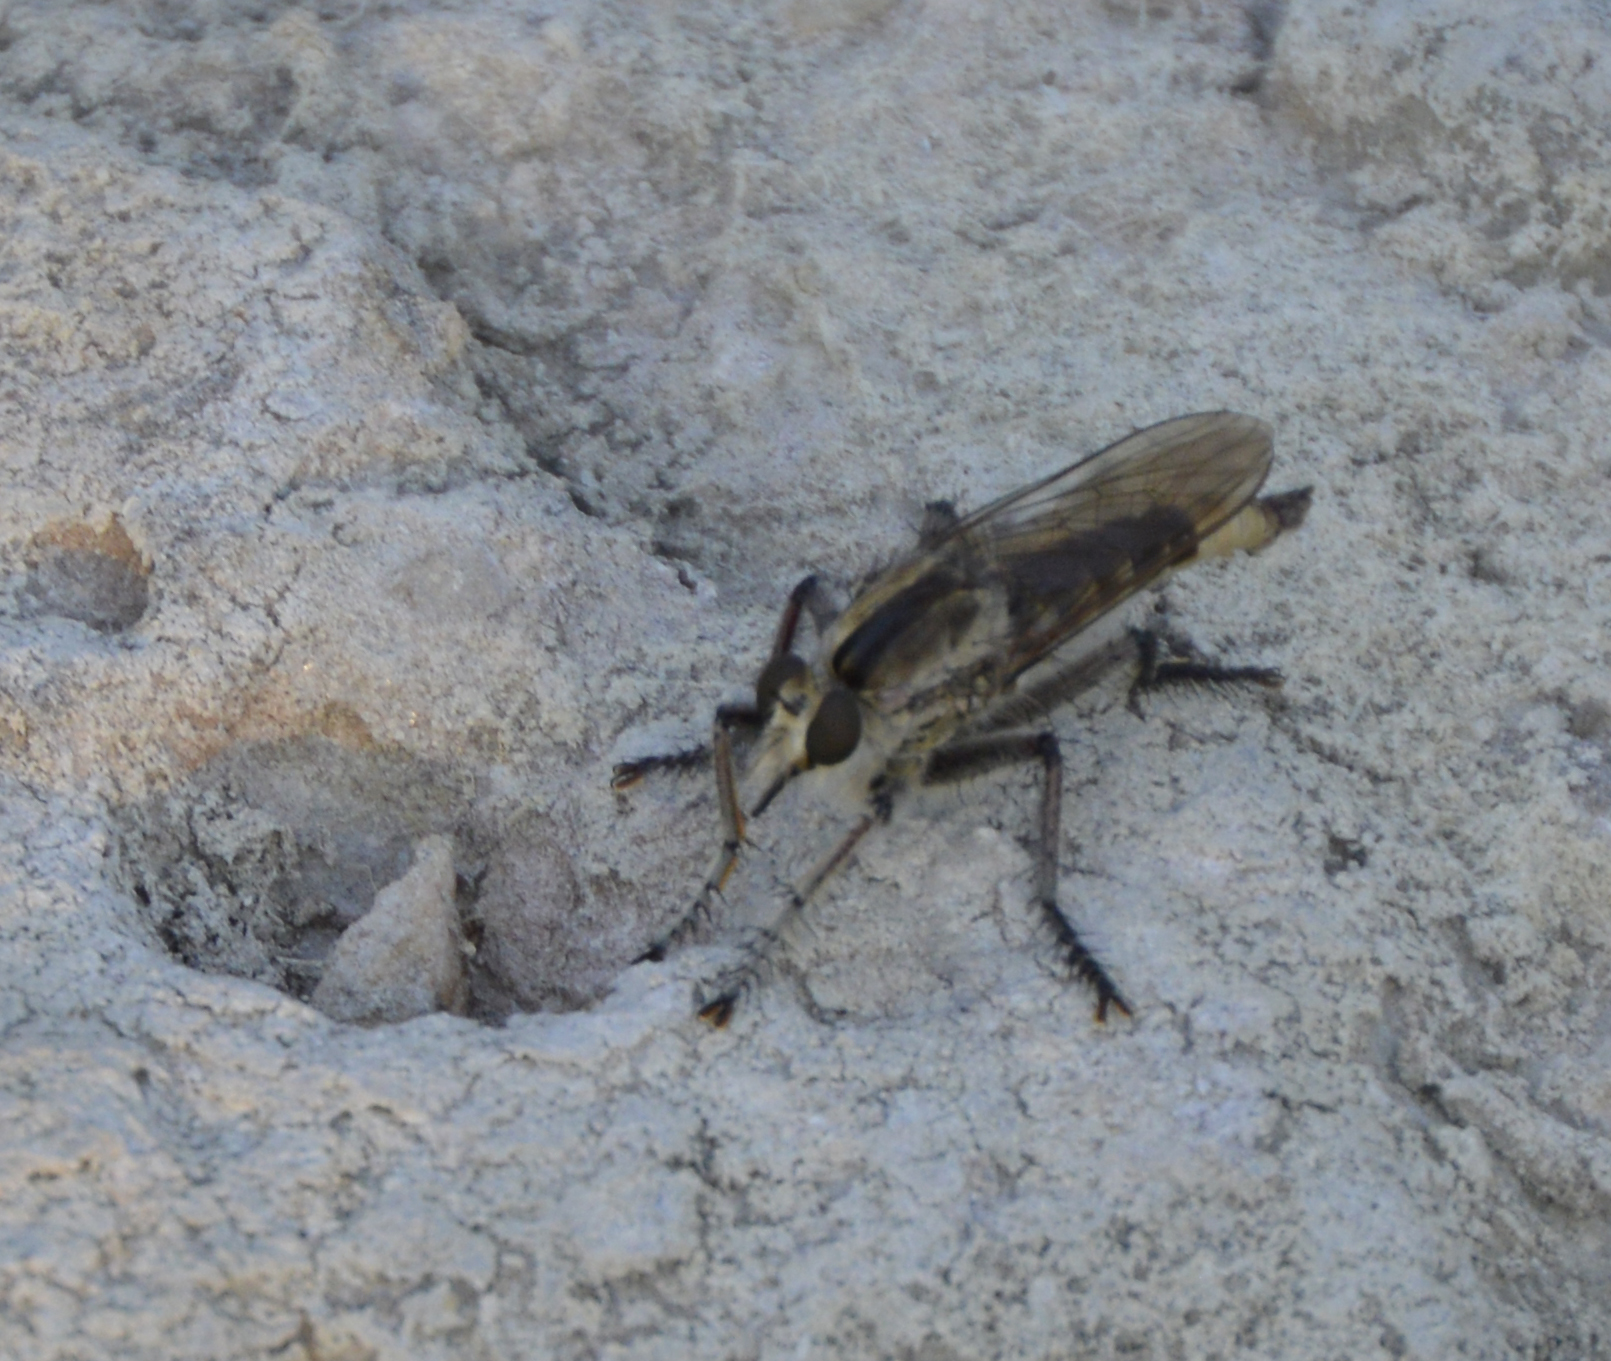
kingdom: Animalia
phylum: Arthropoda
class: Insecta
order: Diptera
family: Asilidae
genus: Triorla
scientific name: Triorla interrupta
